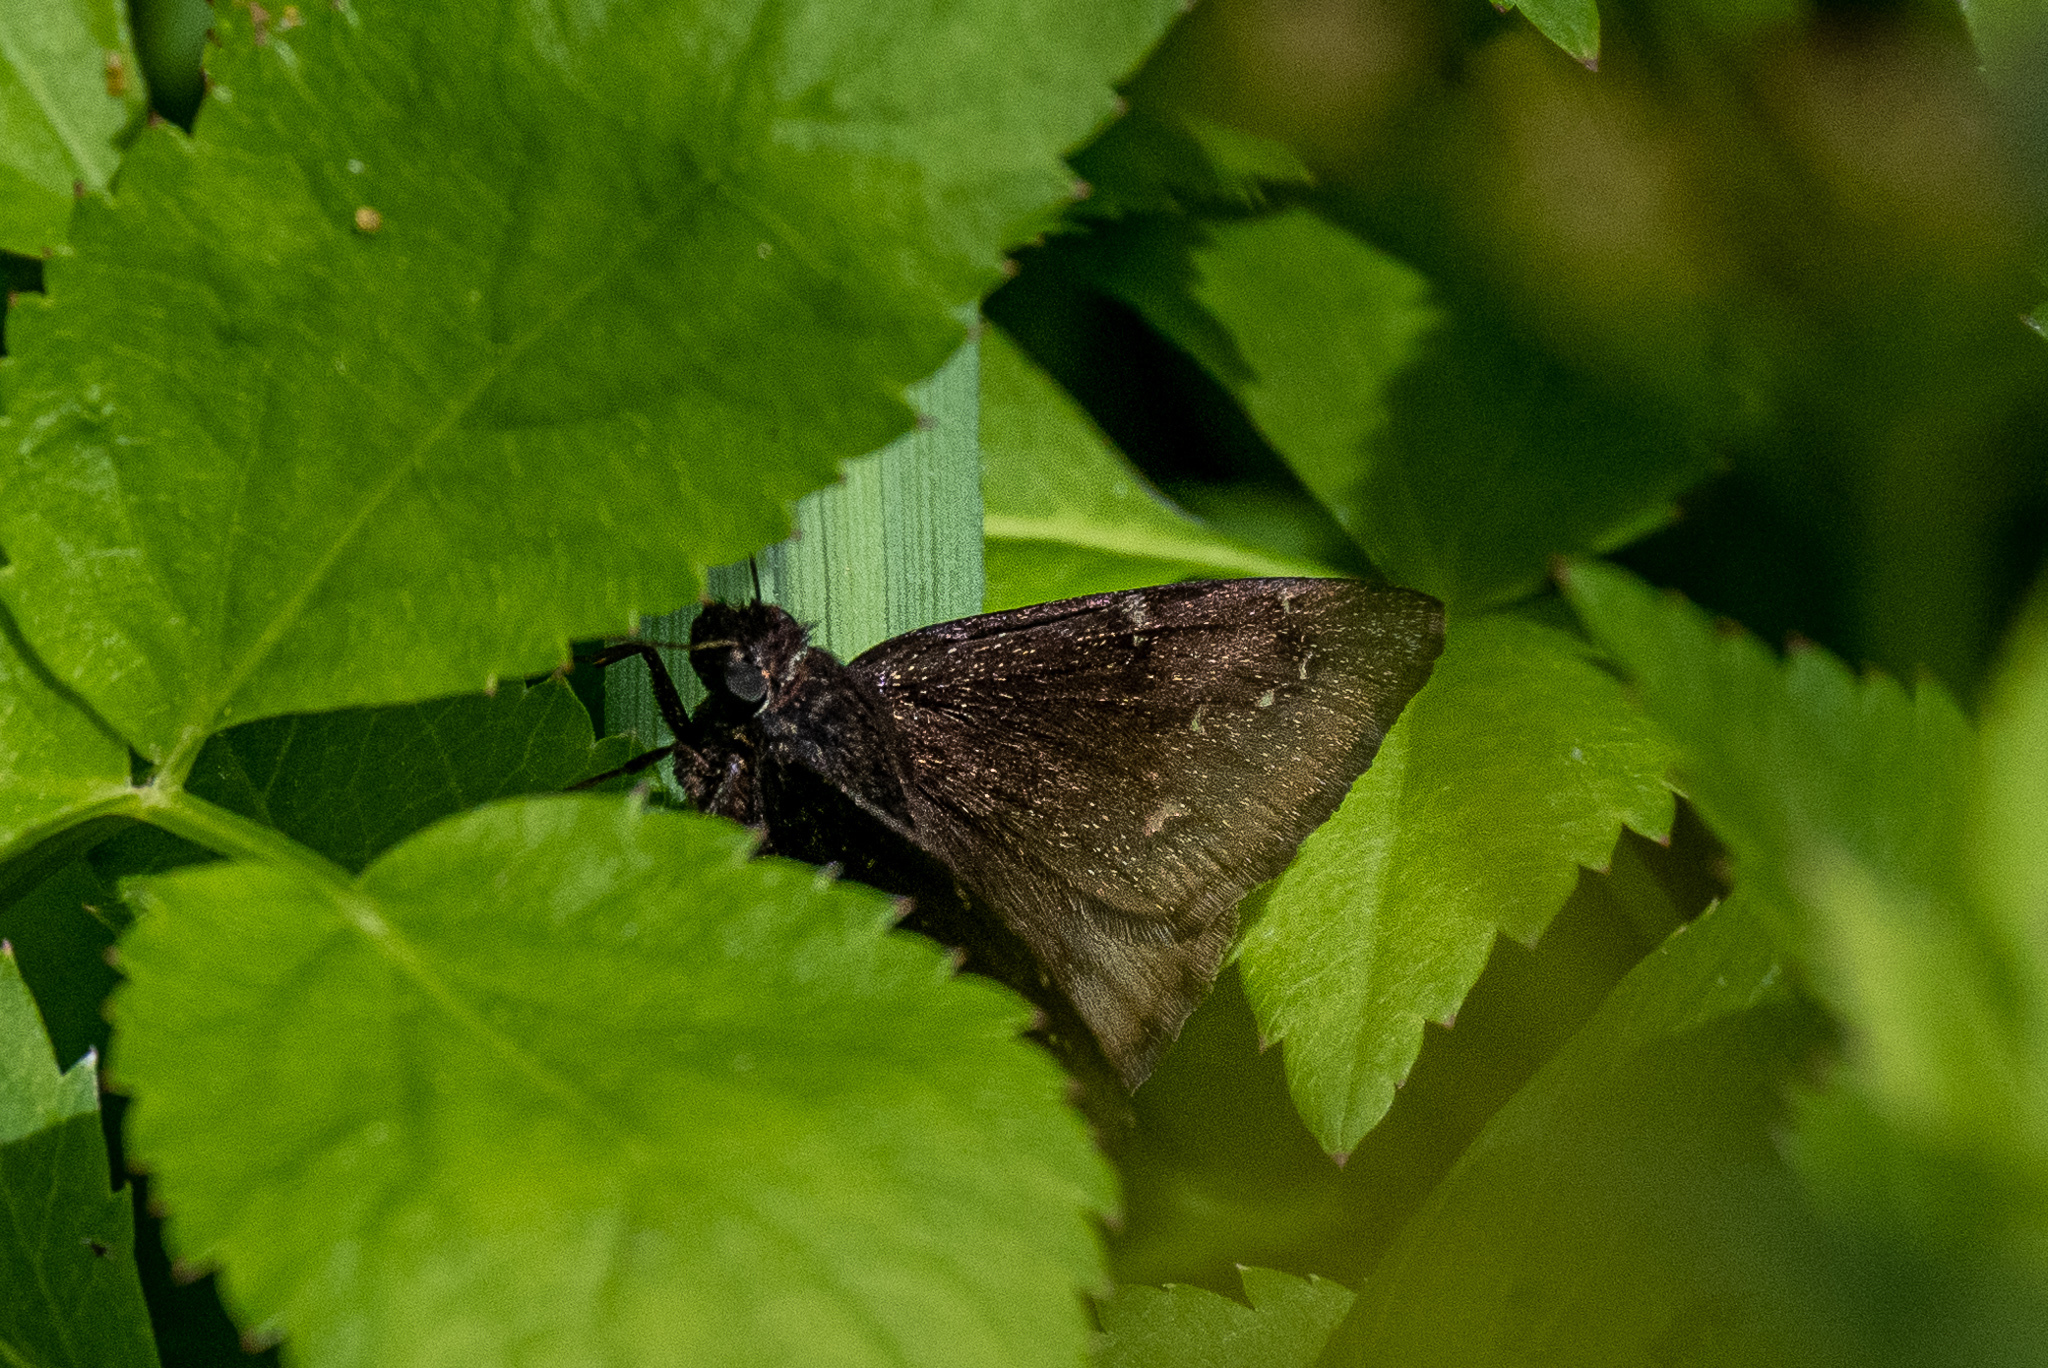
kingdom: Animalia
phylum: Arthropoda
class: Insecta
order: Lepidoptera
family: Hesperiidae
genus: Thorybes
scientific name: Thorybes pylades
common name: Northern cloudywing
